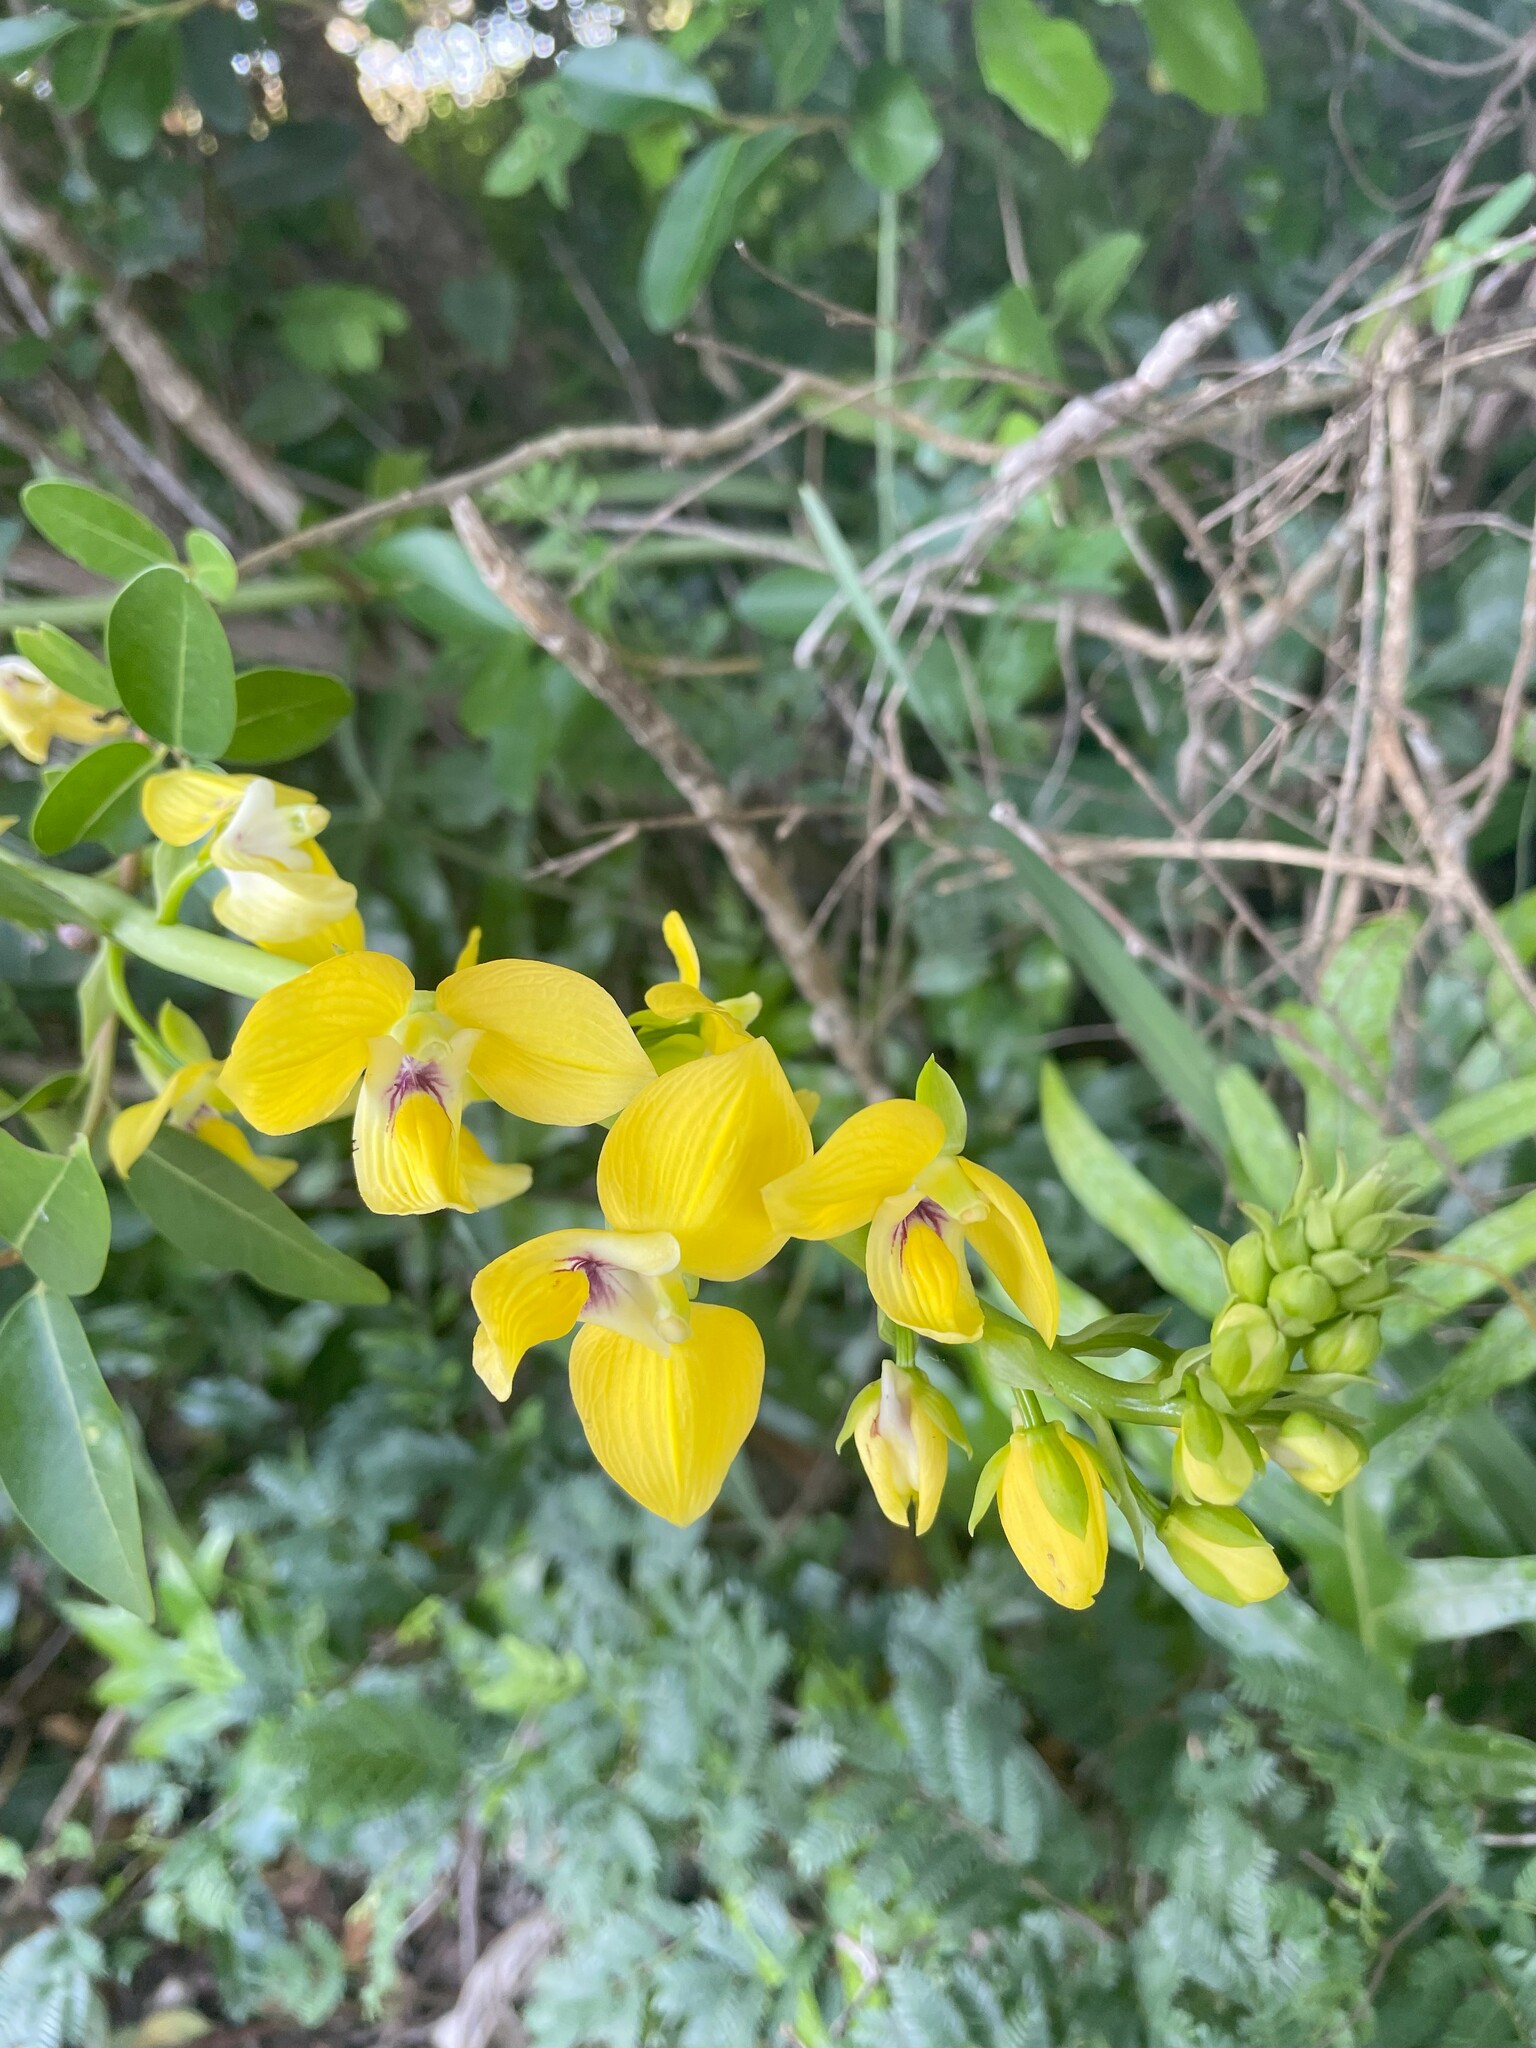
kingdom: Plantae
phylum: Tracheophyta
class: Liliopsida
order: Asparagales
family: Orchidaceae
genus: Eulophia
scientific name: Eulophia speciosa
